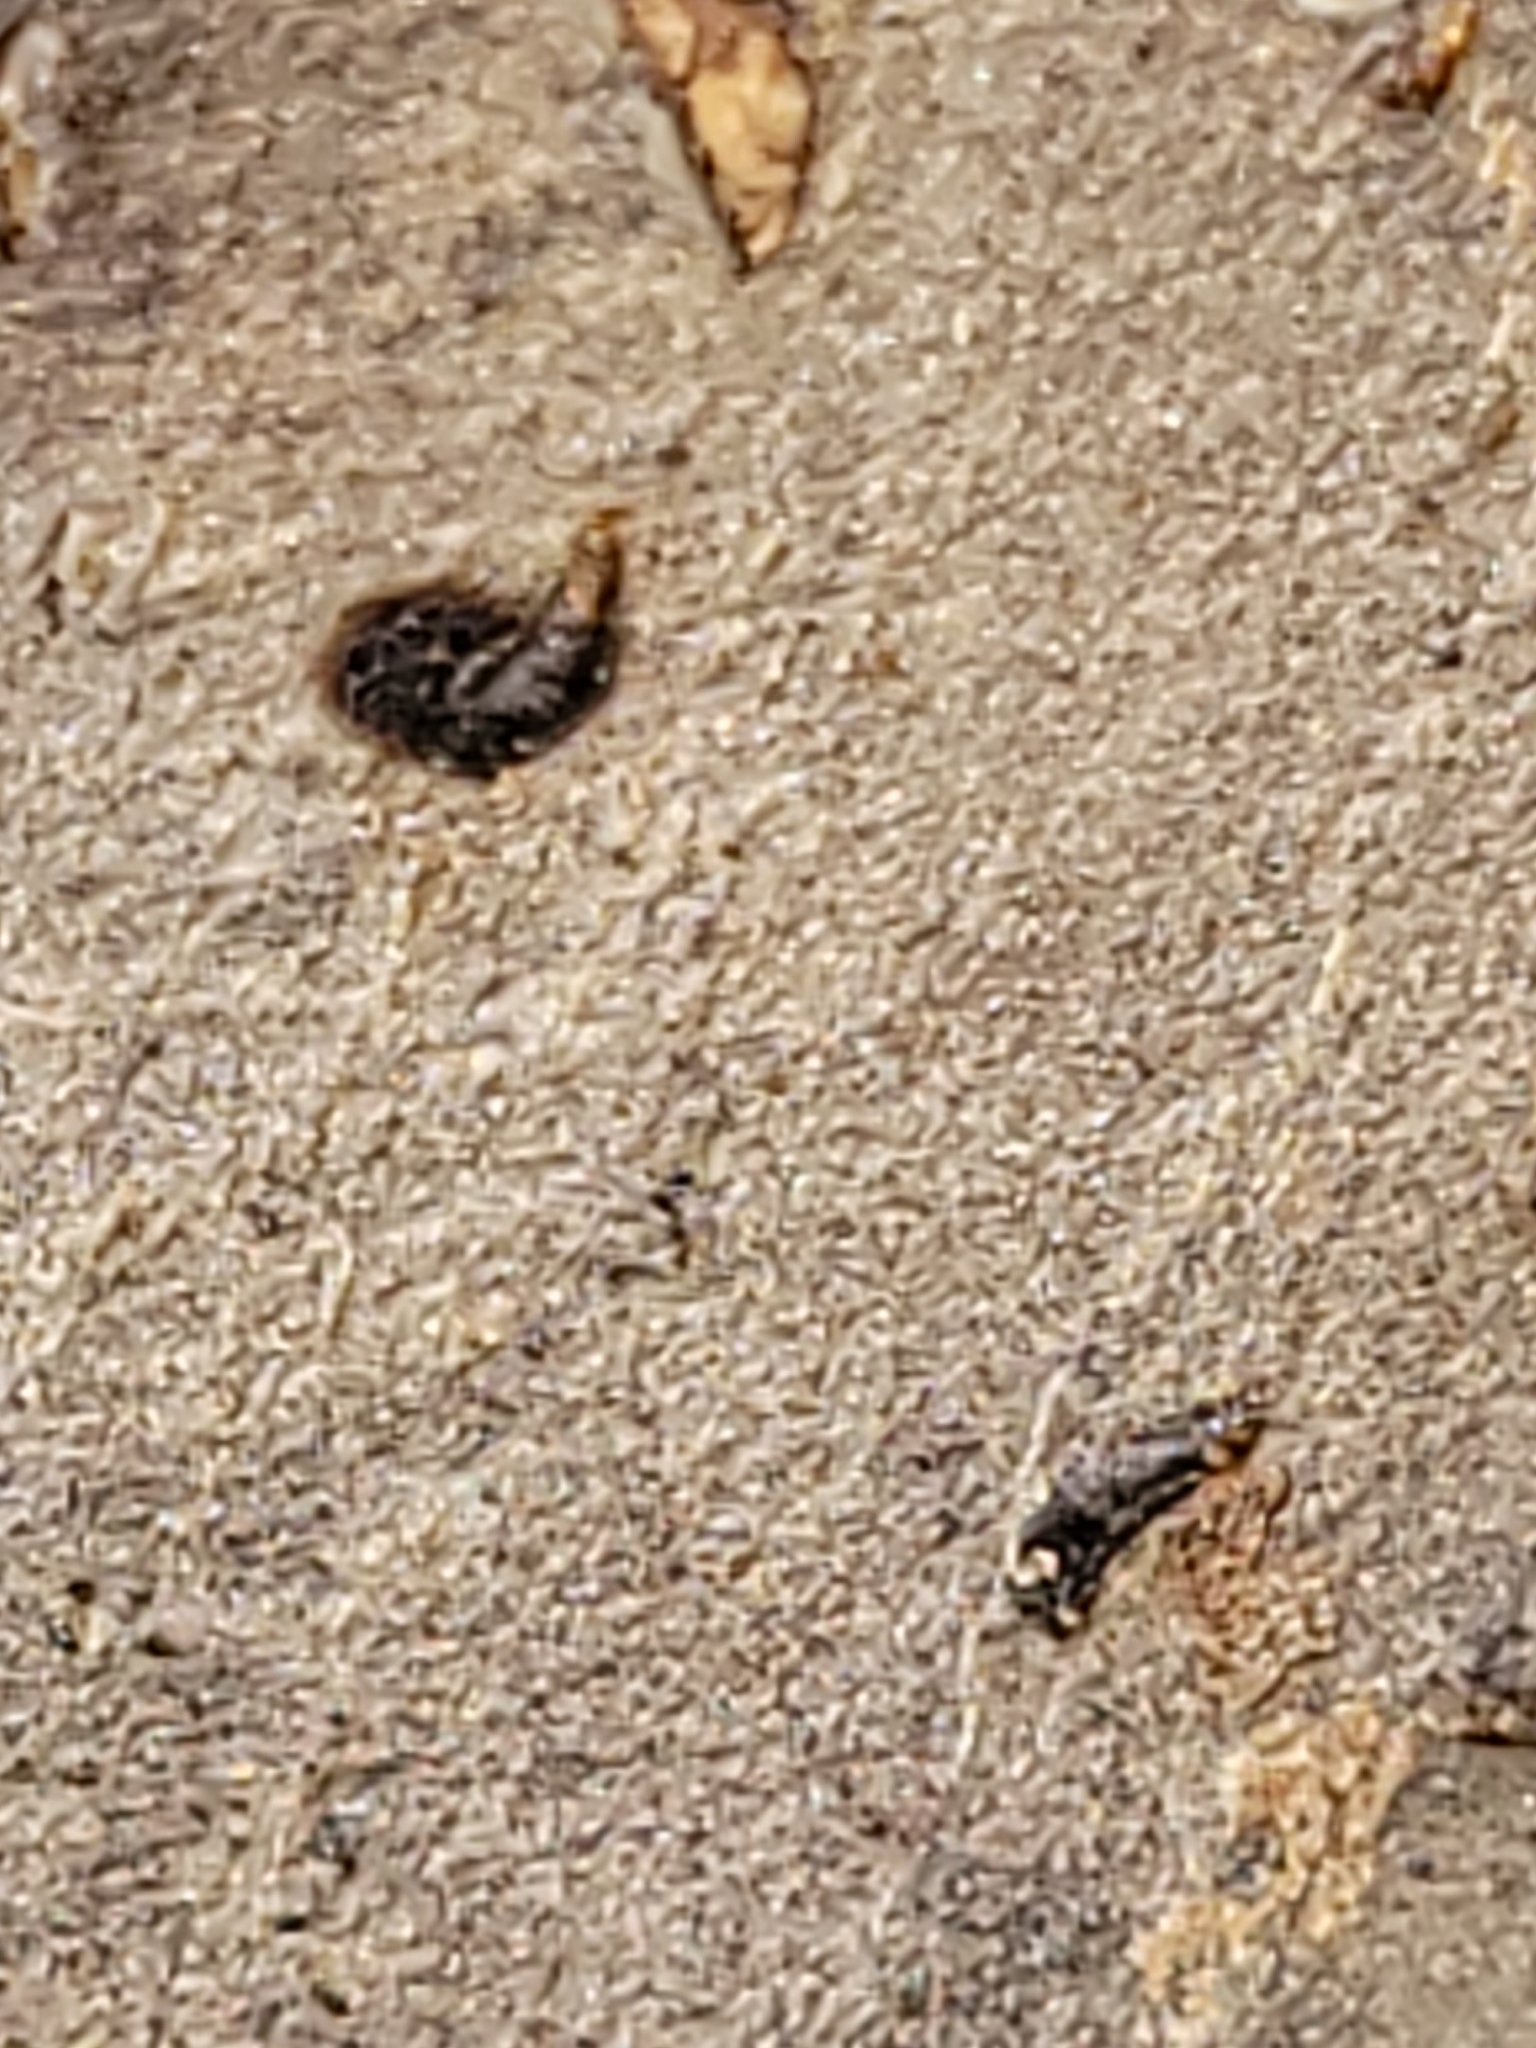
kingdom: Animalia
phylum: Arthropoda
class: Insecta
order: Hemiptera
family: Diaspididae
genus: Lepidosaphes
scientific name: Lepidosaphes ulmi
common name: Oystershell scale
